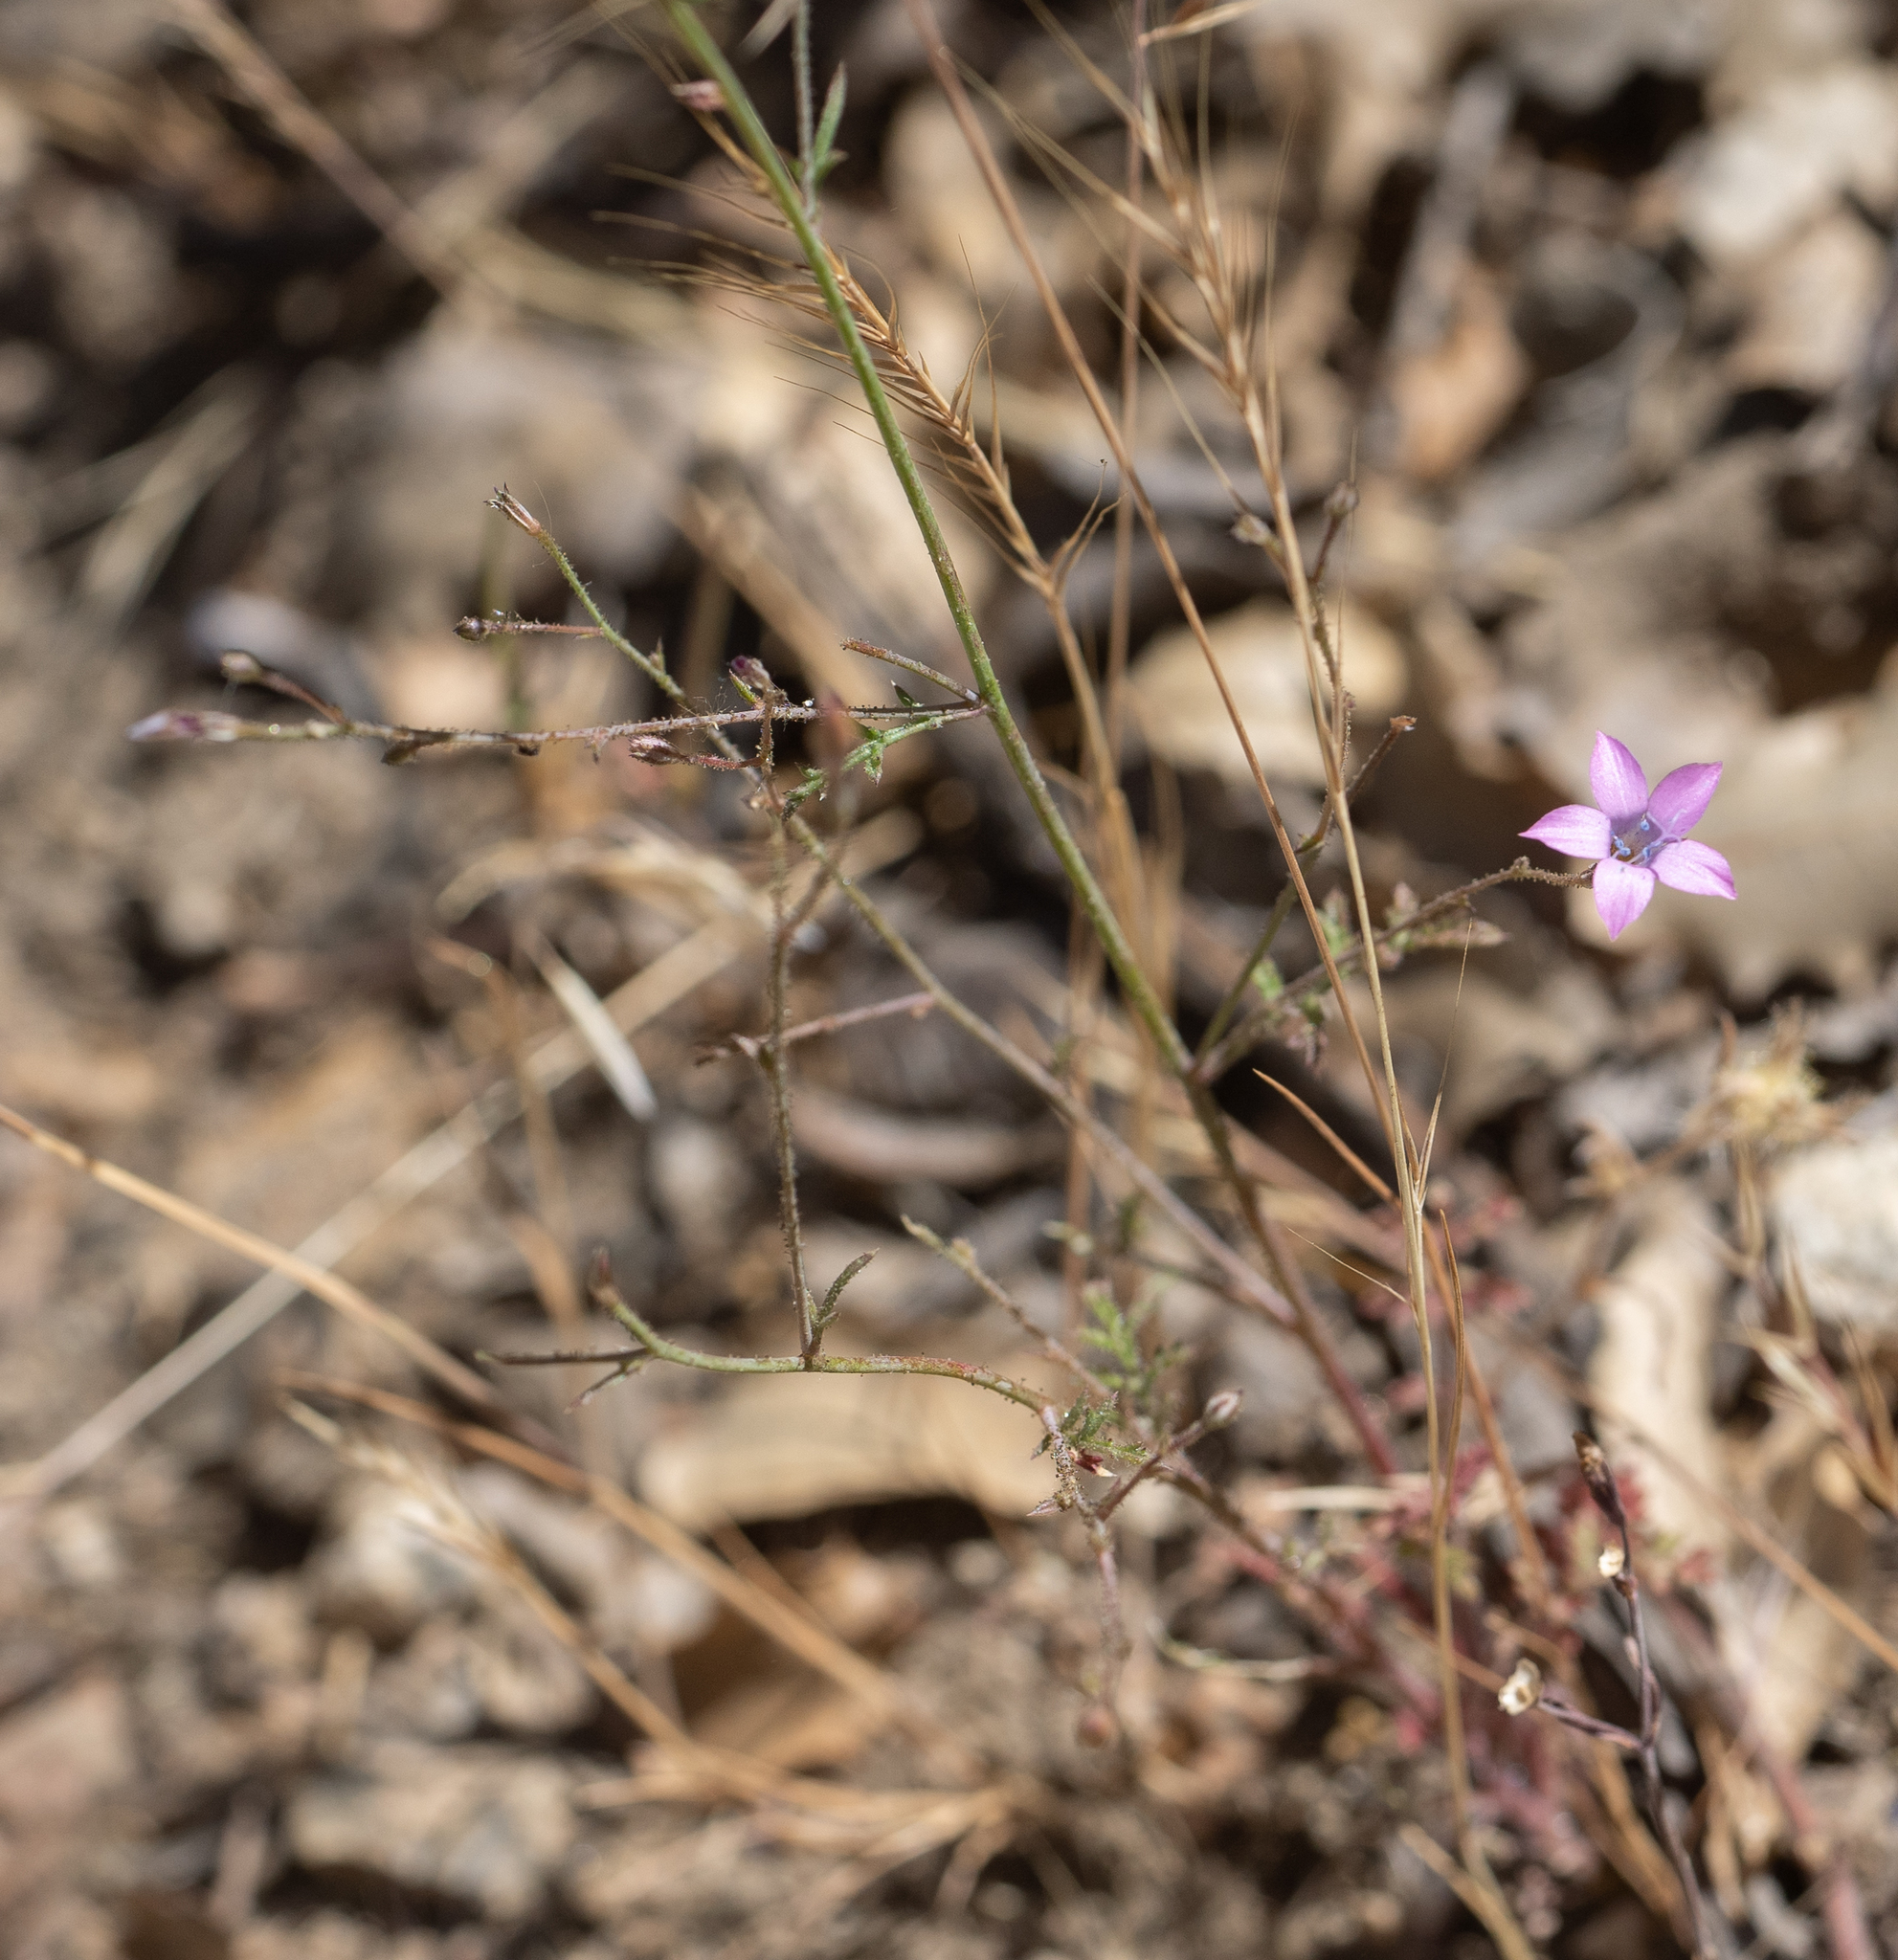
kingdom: Plantae
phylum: Tracheophyta
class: Magnoliopsida
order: Ericales
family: Polemoniaceae
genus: Saltugilia
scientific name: Saltugilia splendens
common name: Grinnell's gilia
